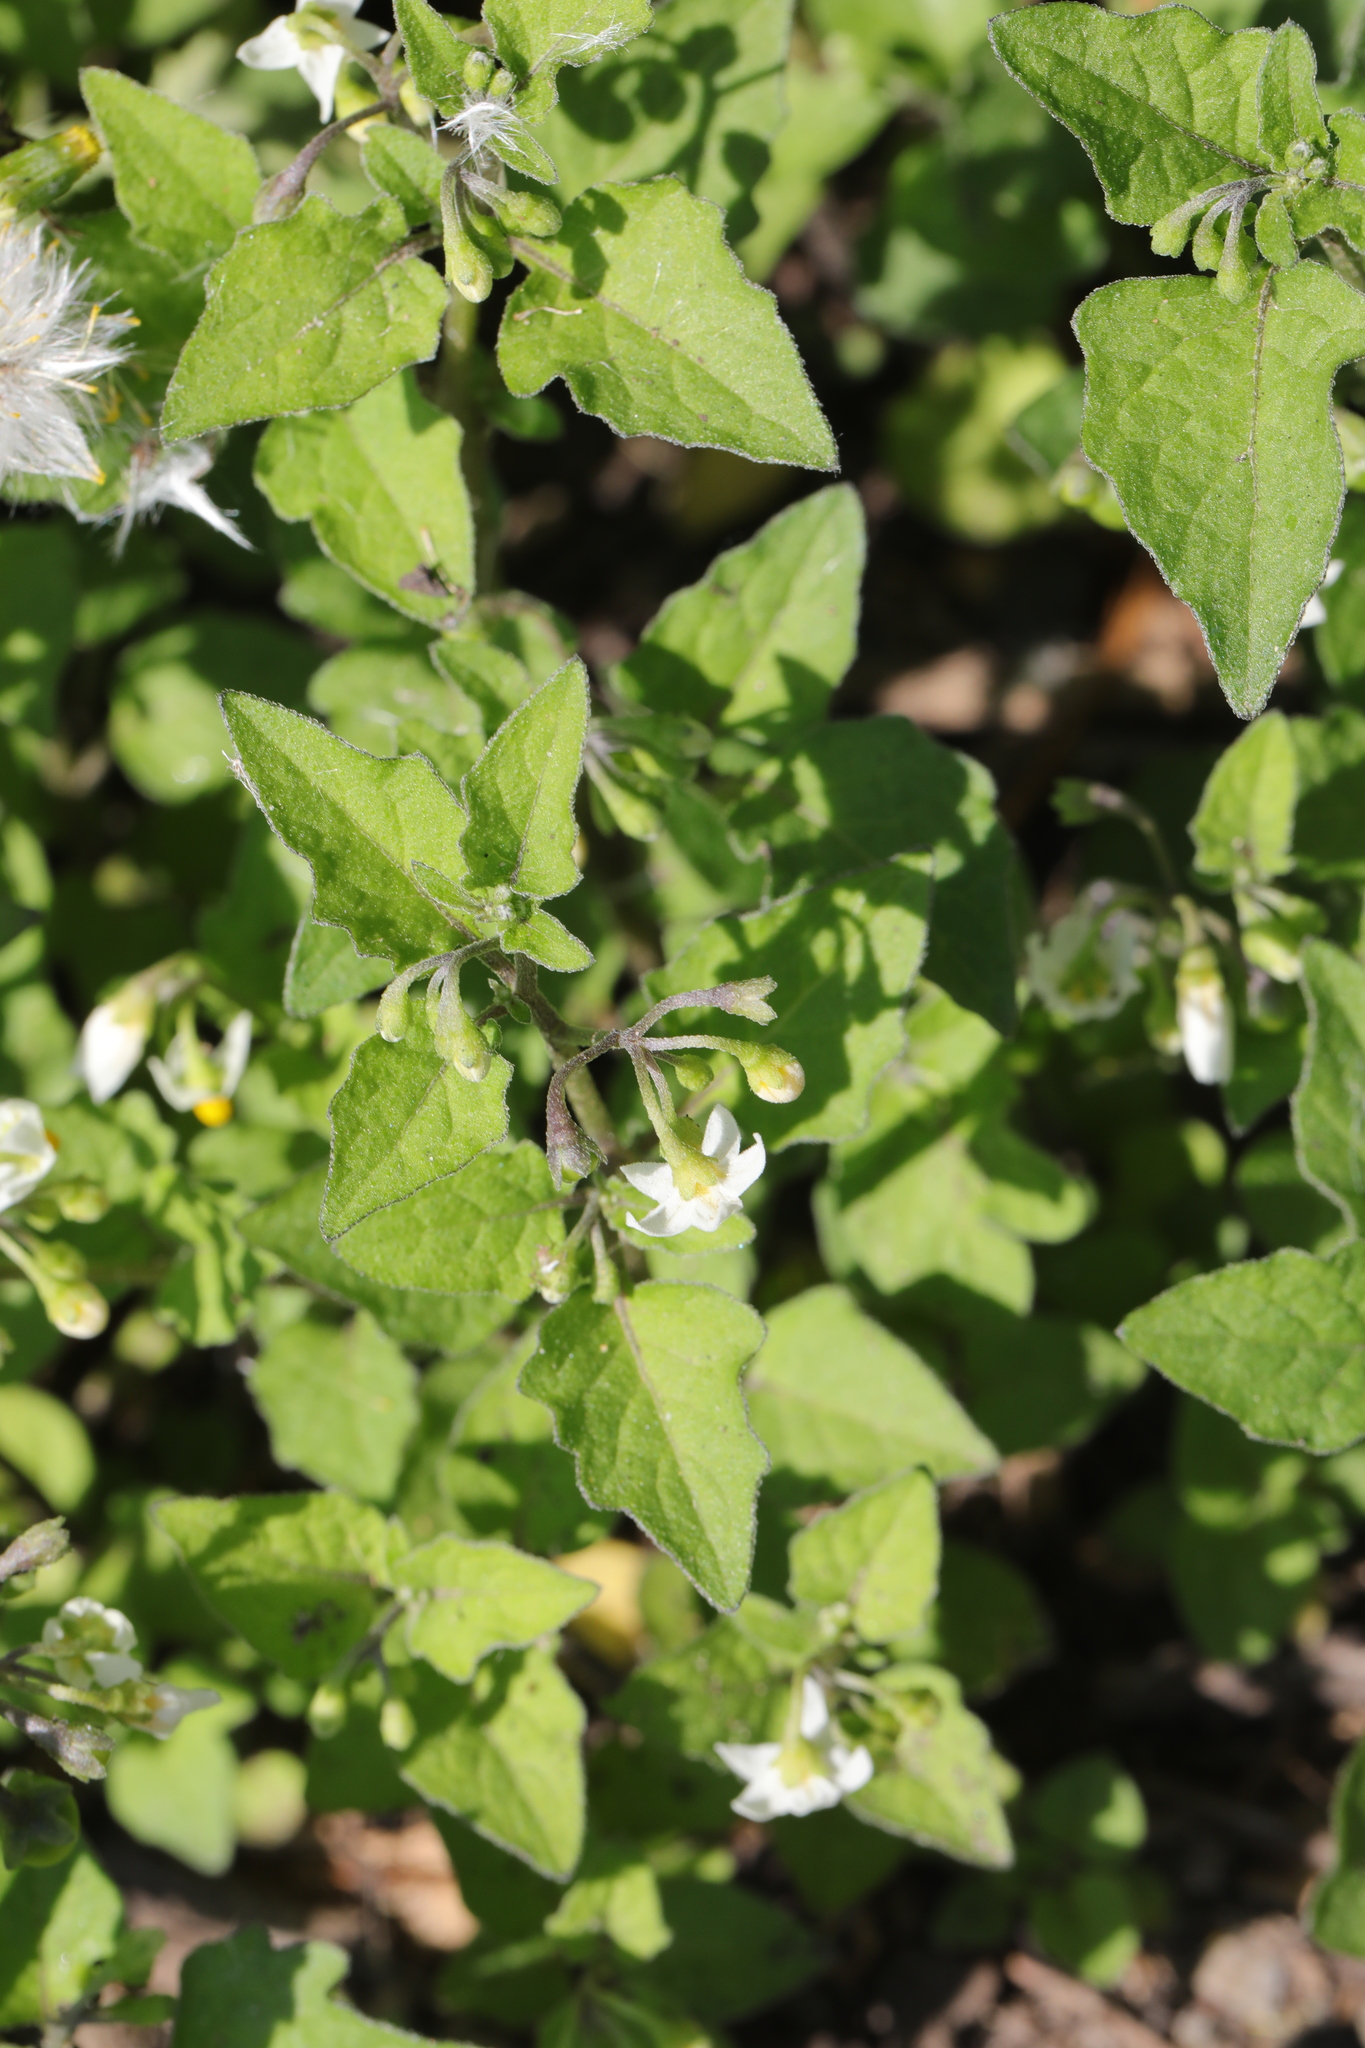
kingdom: Plantae
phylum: Tracheophyta
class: Magnoliopsida
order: Solanales
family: Solanaceae
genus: Solanum
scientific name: Solanum nigrum
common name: Black nightshade
